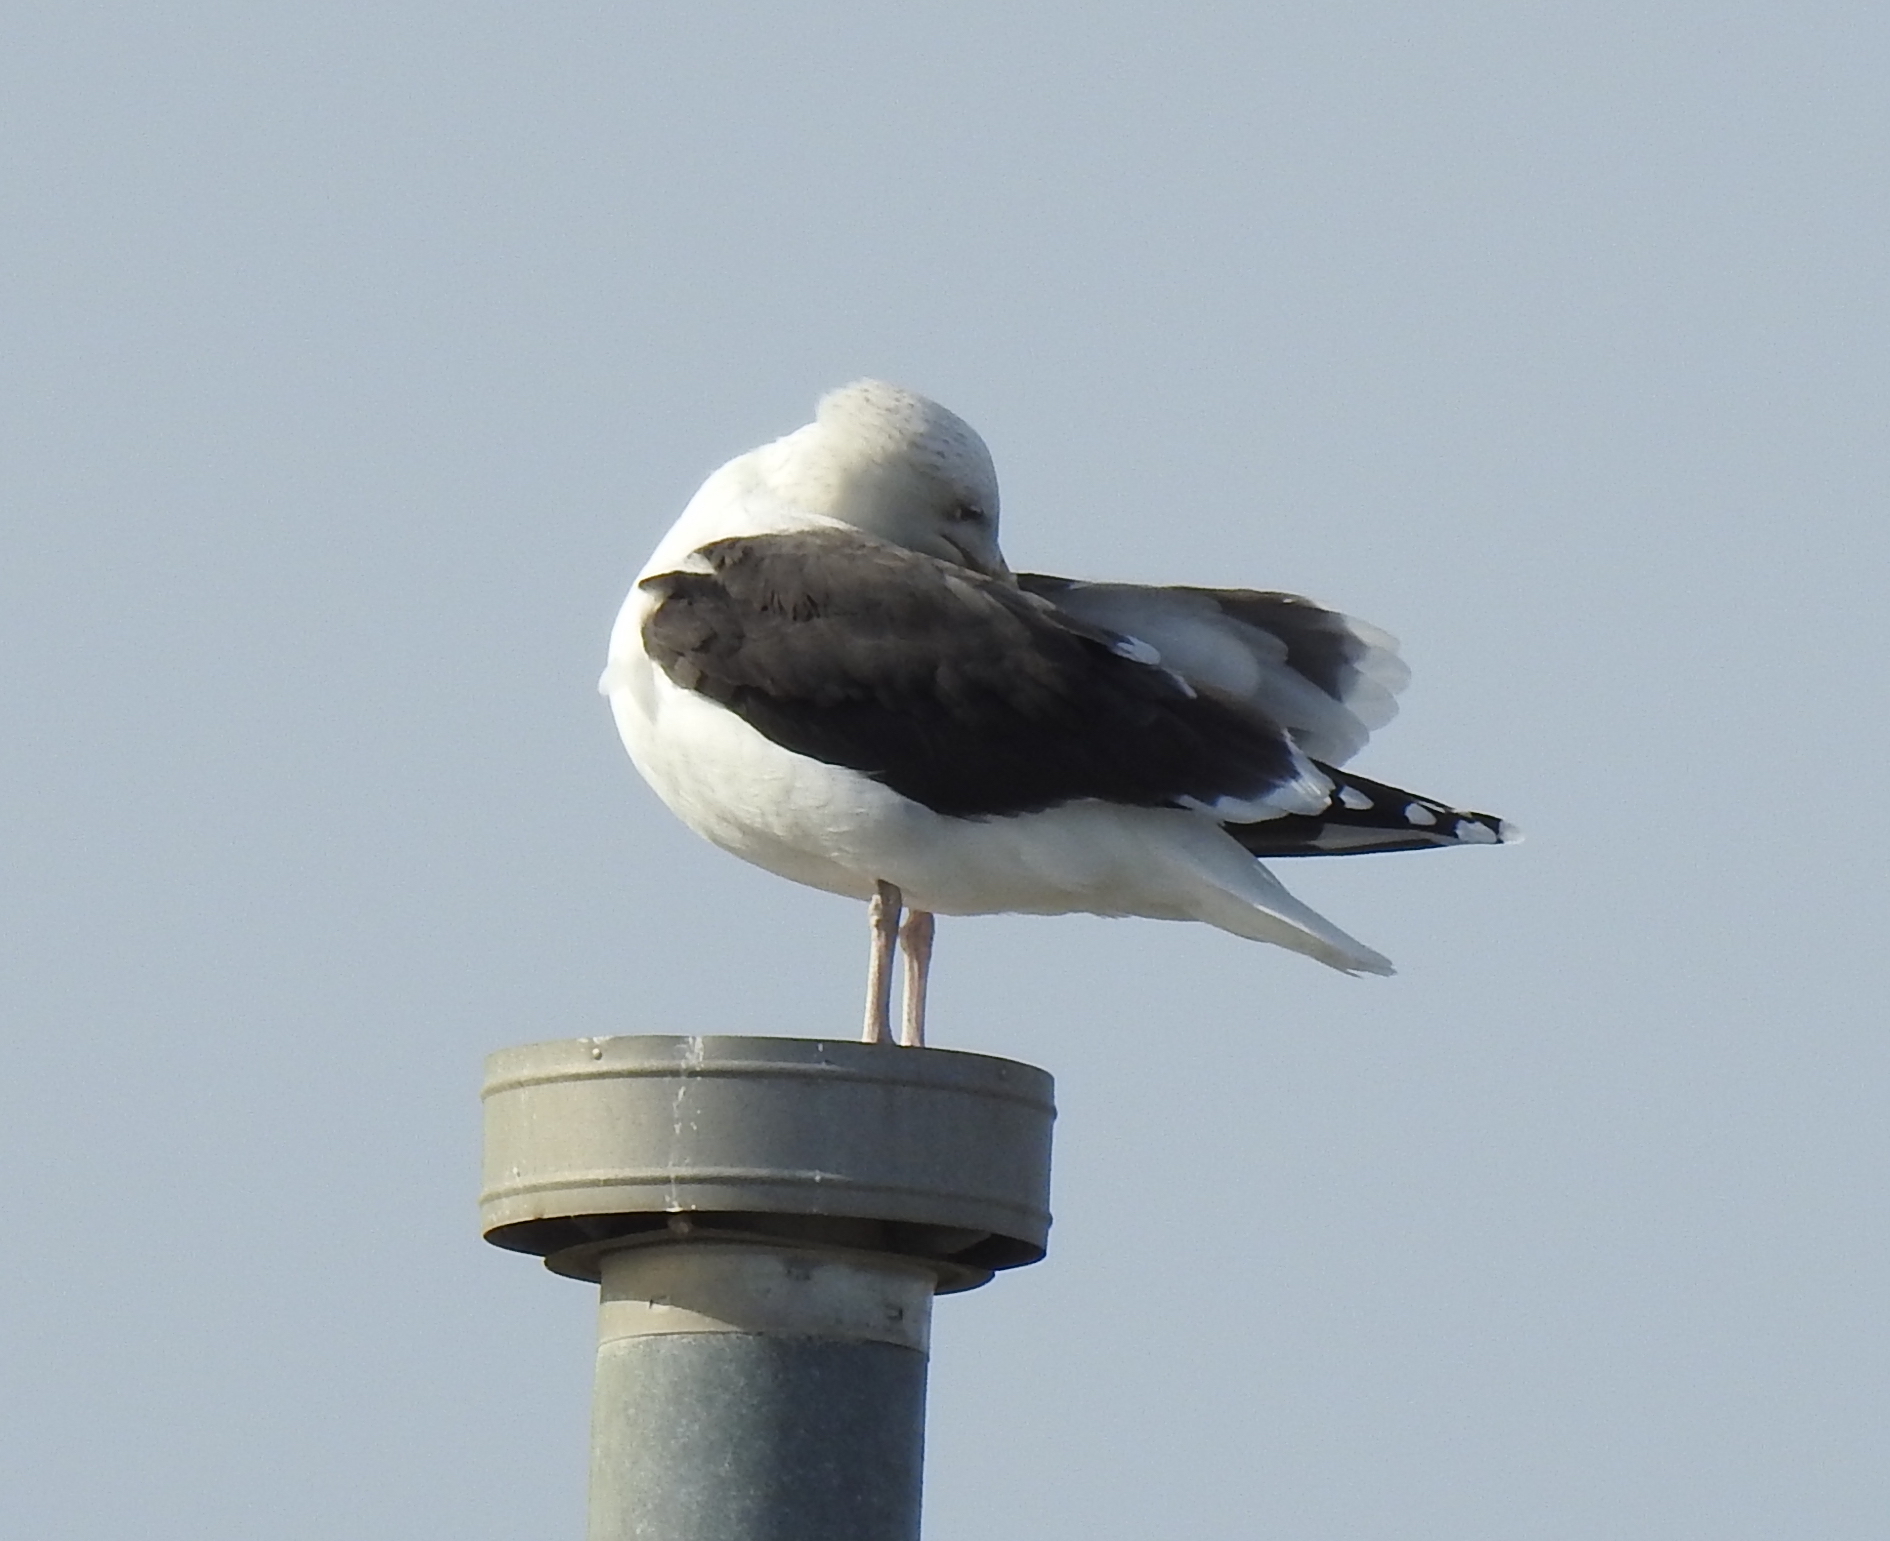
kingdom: Animalia
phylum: Chordata
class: Aves
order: Charadriiformes
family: Laridae
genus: Larus
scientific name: Larus marinus
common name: Great black-backed gull
